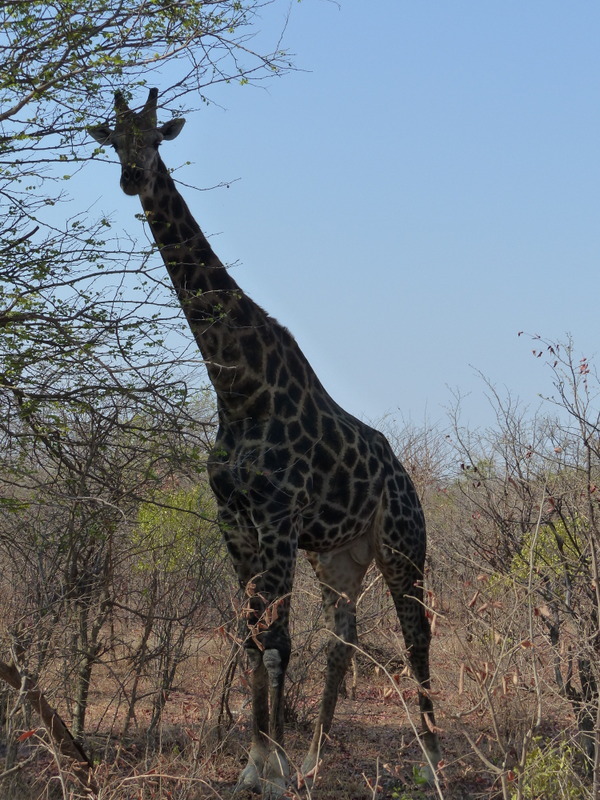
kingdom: Animalia
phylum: Chordata
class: Mammalia
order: Artiodactyla
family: Giraffidae
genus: Giraffa
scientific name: Giraffa giraffa
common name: Southern giraffe
